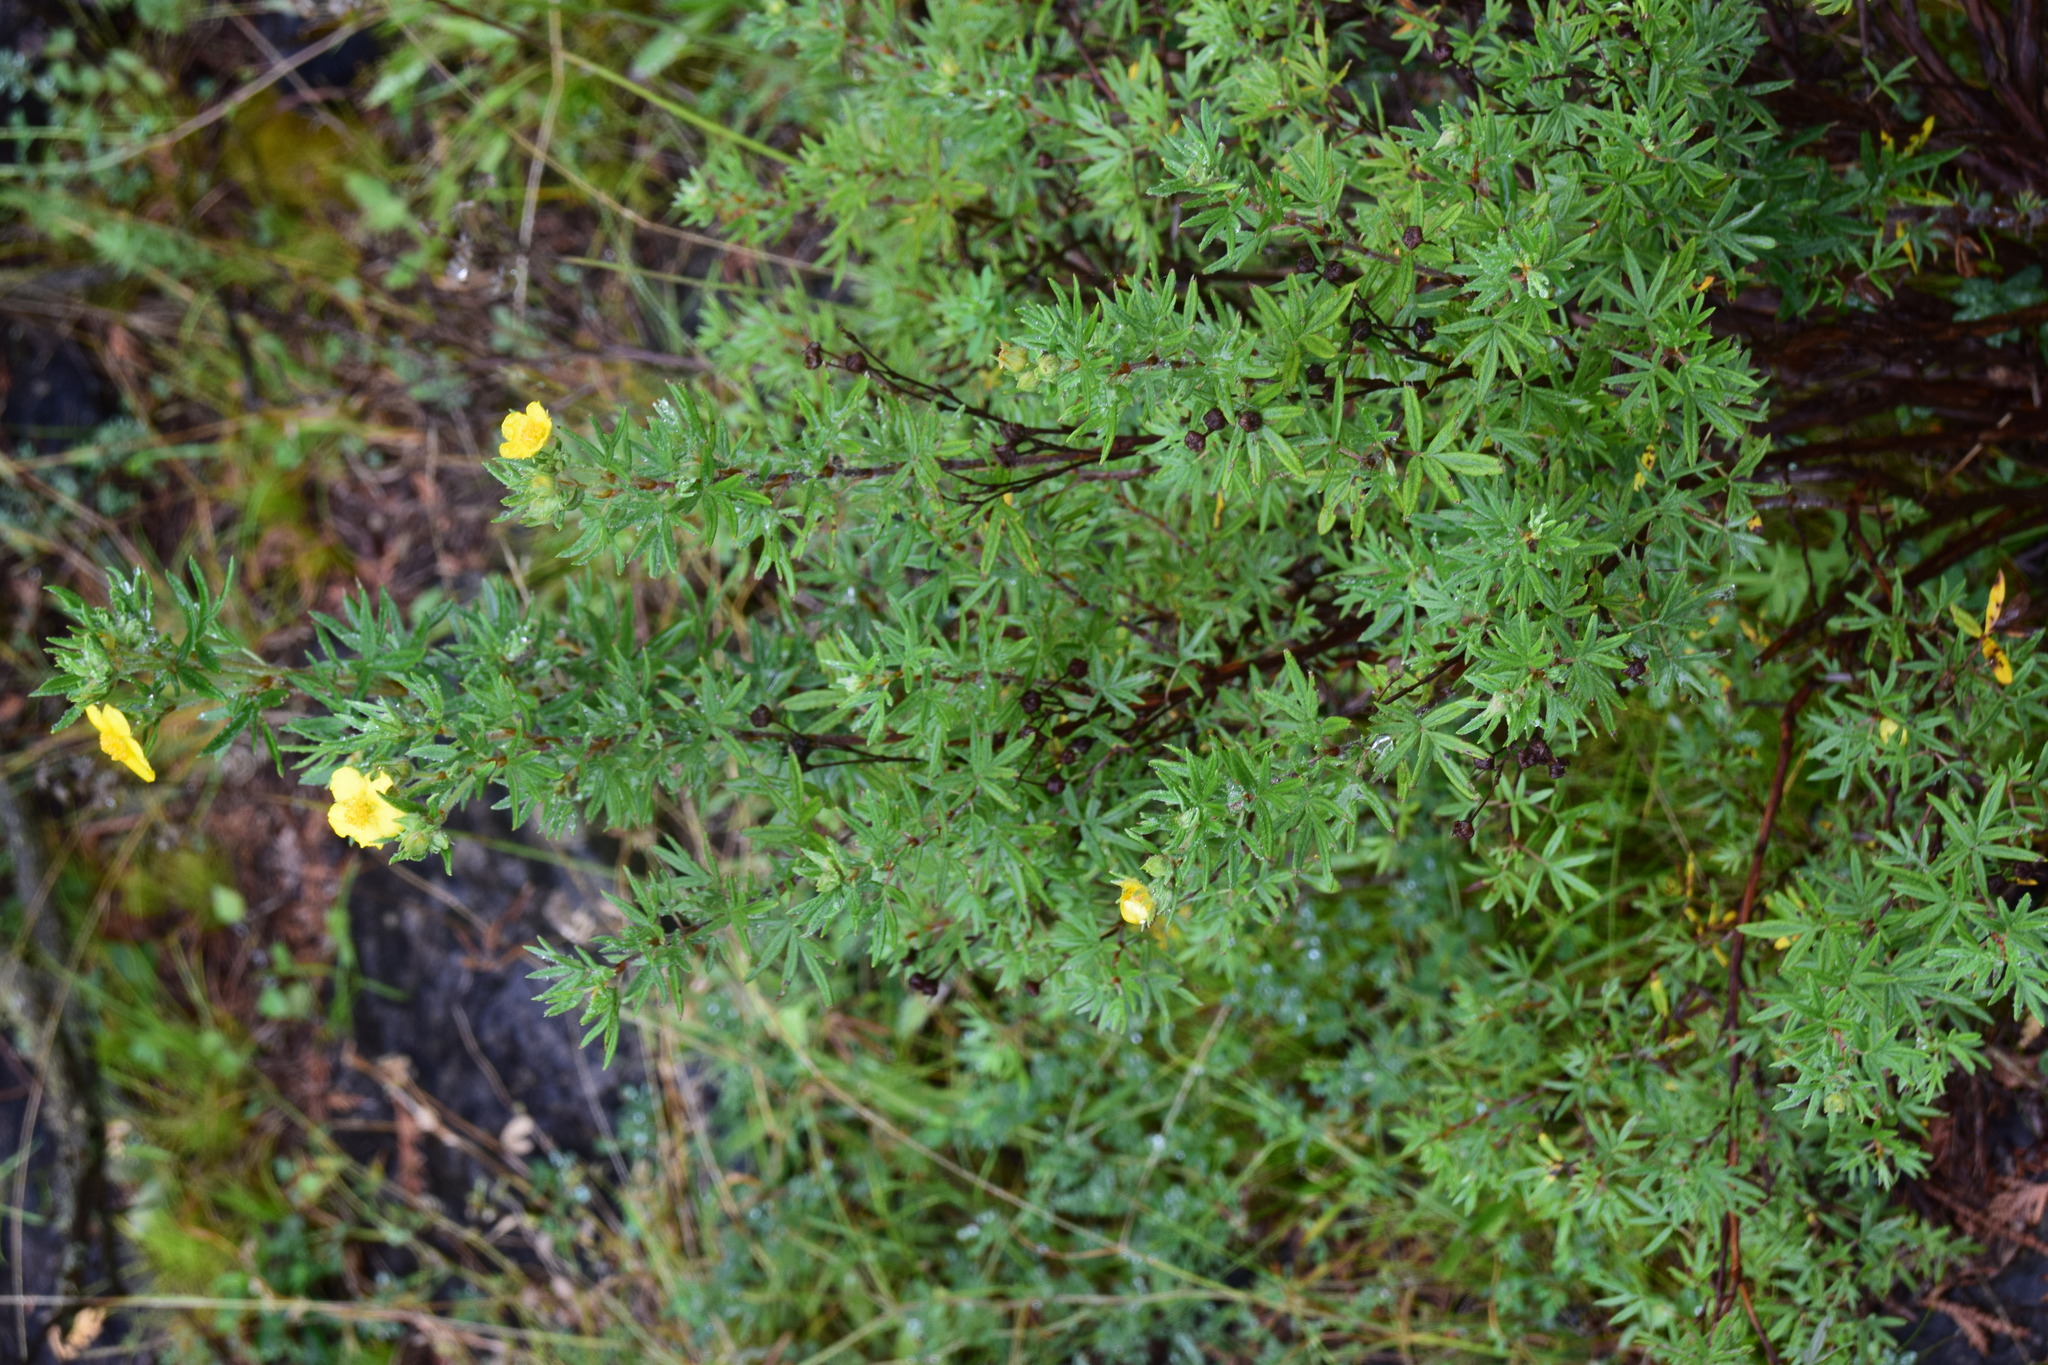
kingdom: Plantae
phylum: Tracheophyta
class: Magnoliopsida
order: Rosales
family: Rosaceae
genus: Dasiphora
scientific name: Dasiphora fruticosa
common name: Shrubby cinquefoil
